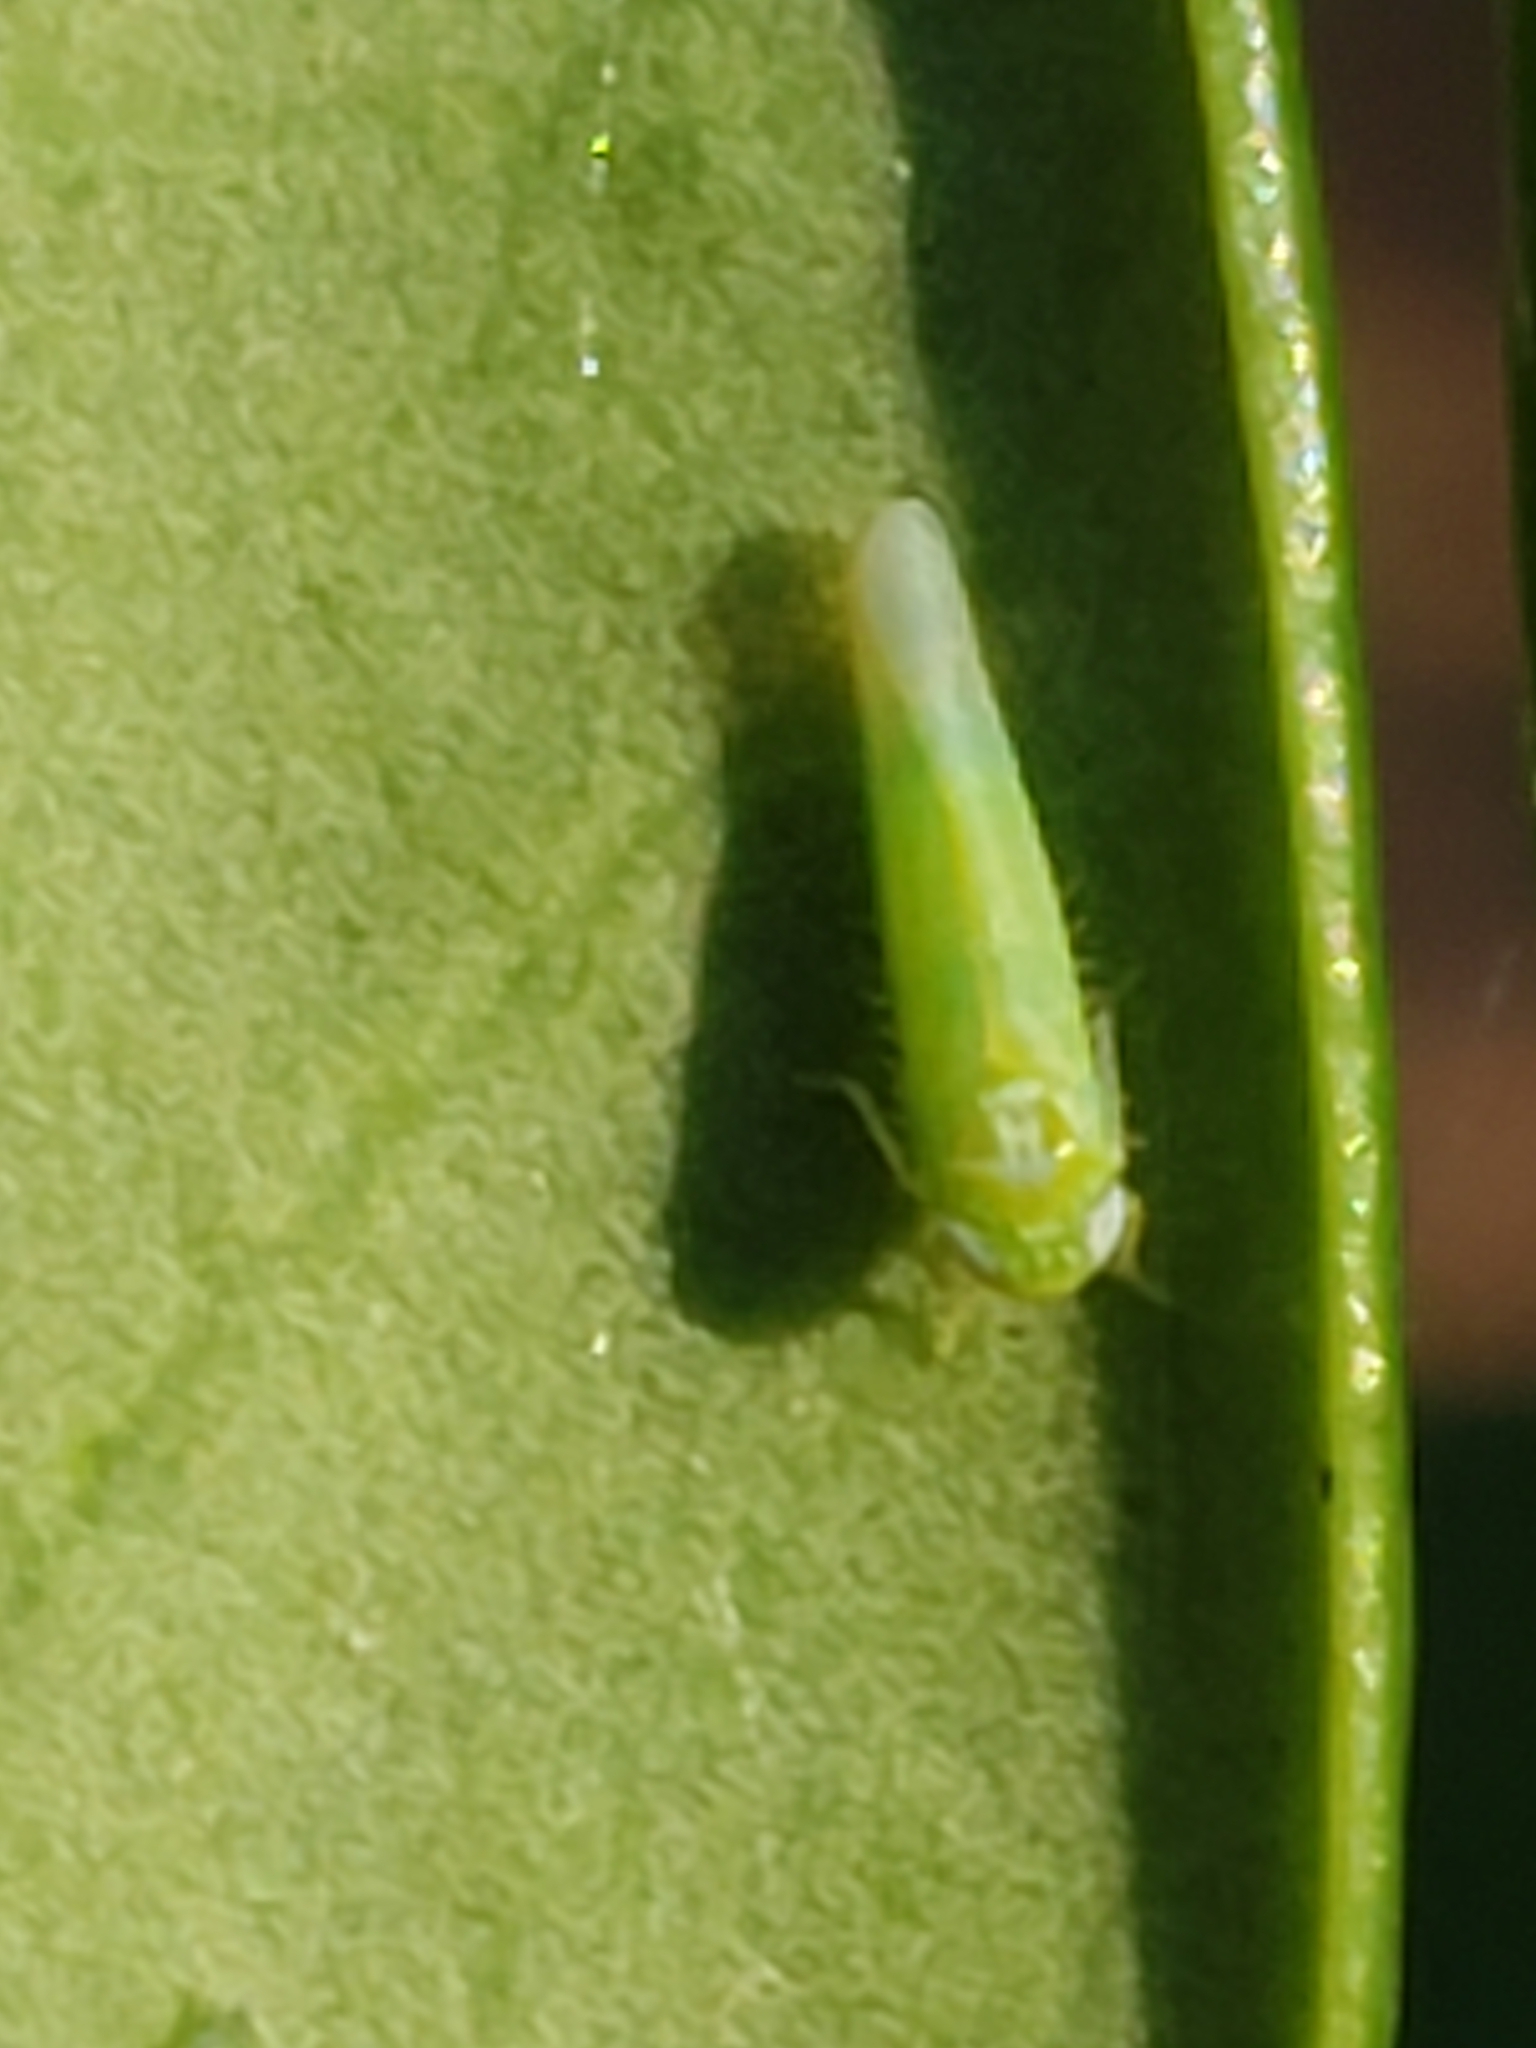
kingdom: Animalia
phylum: Arthropoda
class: Insecta
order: Hemiptera
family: Cicadellidae
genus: Empoasca
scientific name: Empoasca fabae
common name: Potato leafhopper
